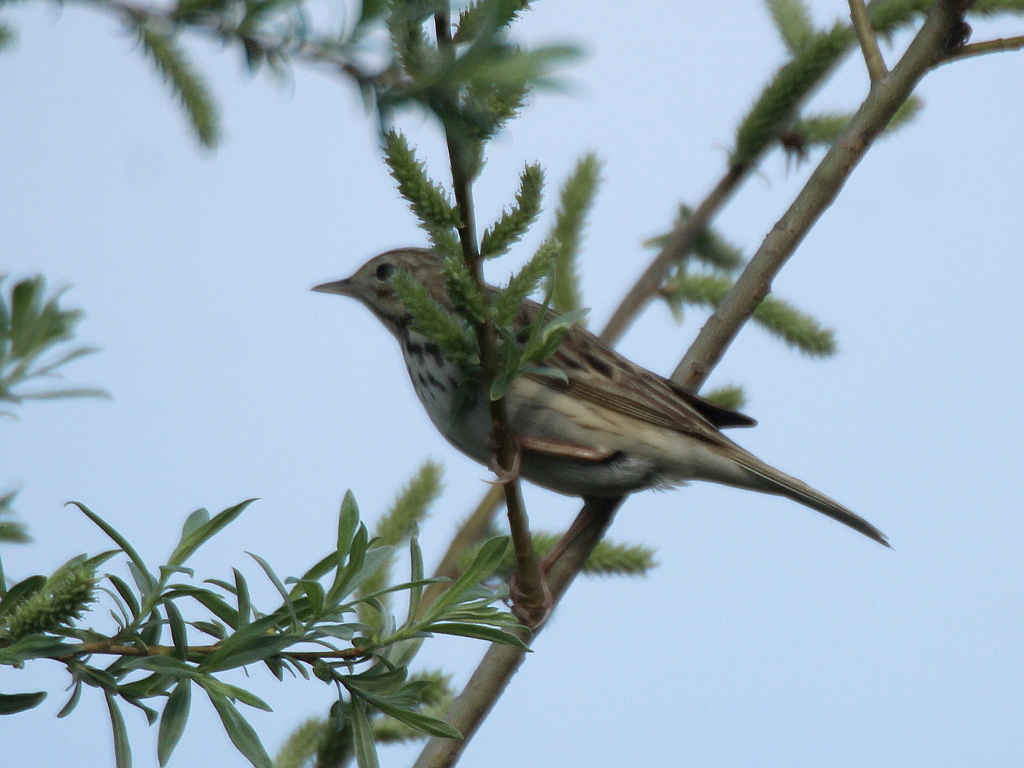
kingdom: Animalia
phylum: Chordata
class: Aves
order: Passeriformes
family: Motacillidae
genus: Anthus
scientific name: Anthus trivialis
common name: Tree pipit
